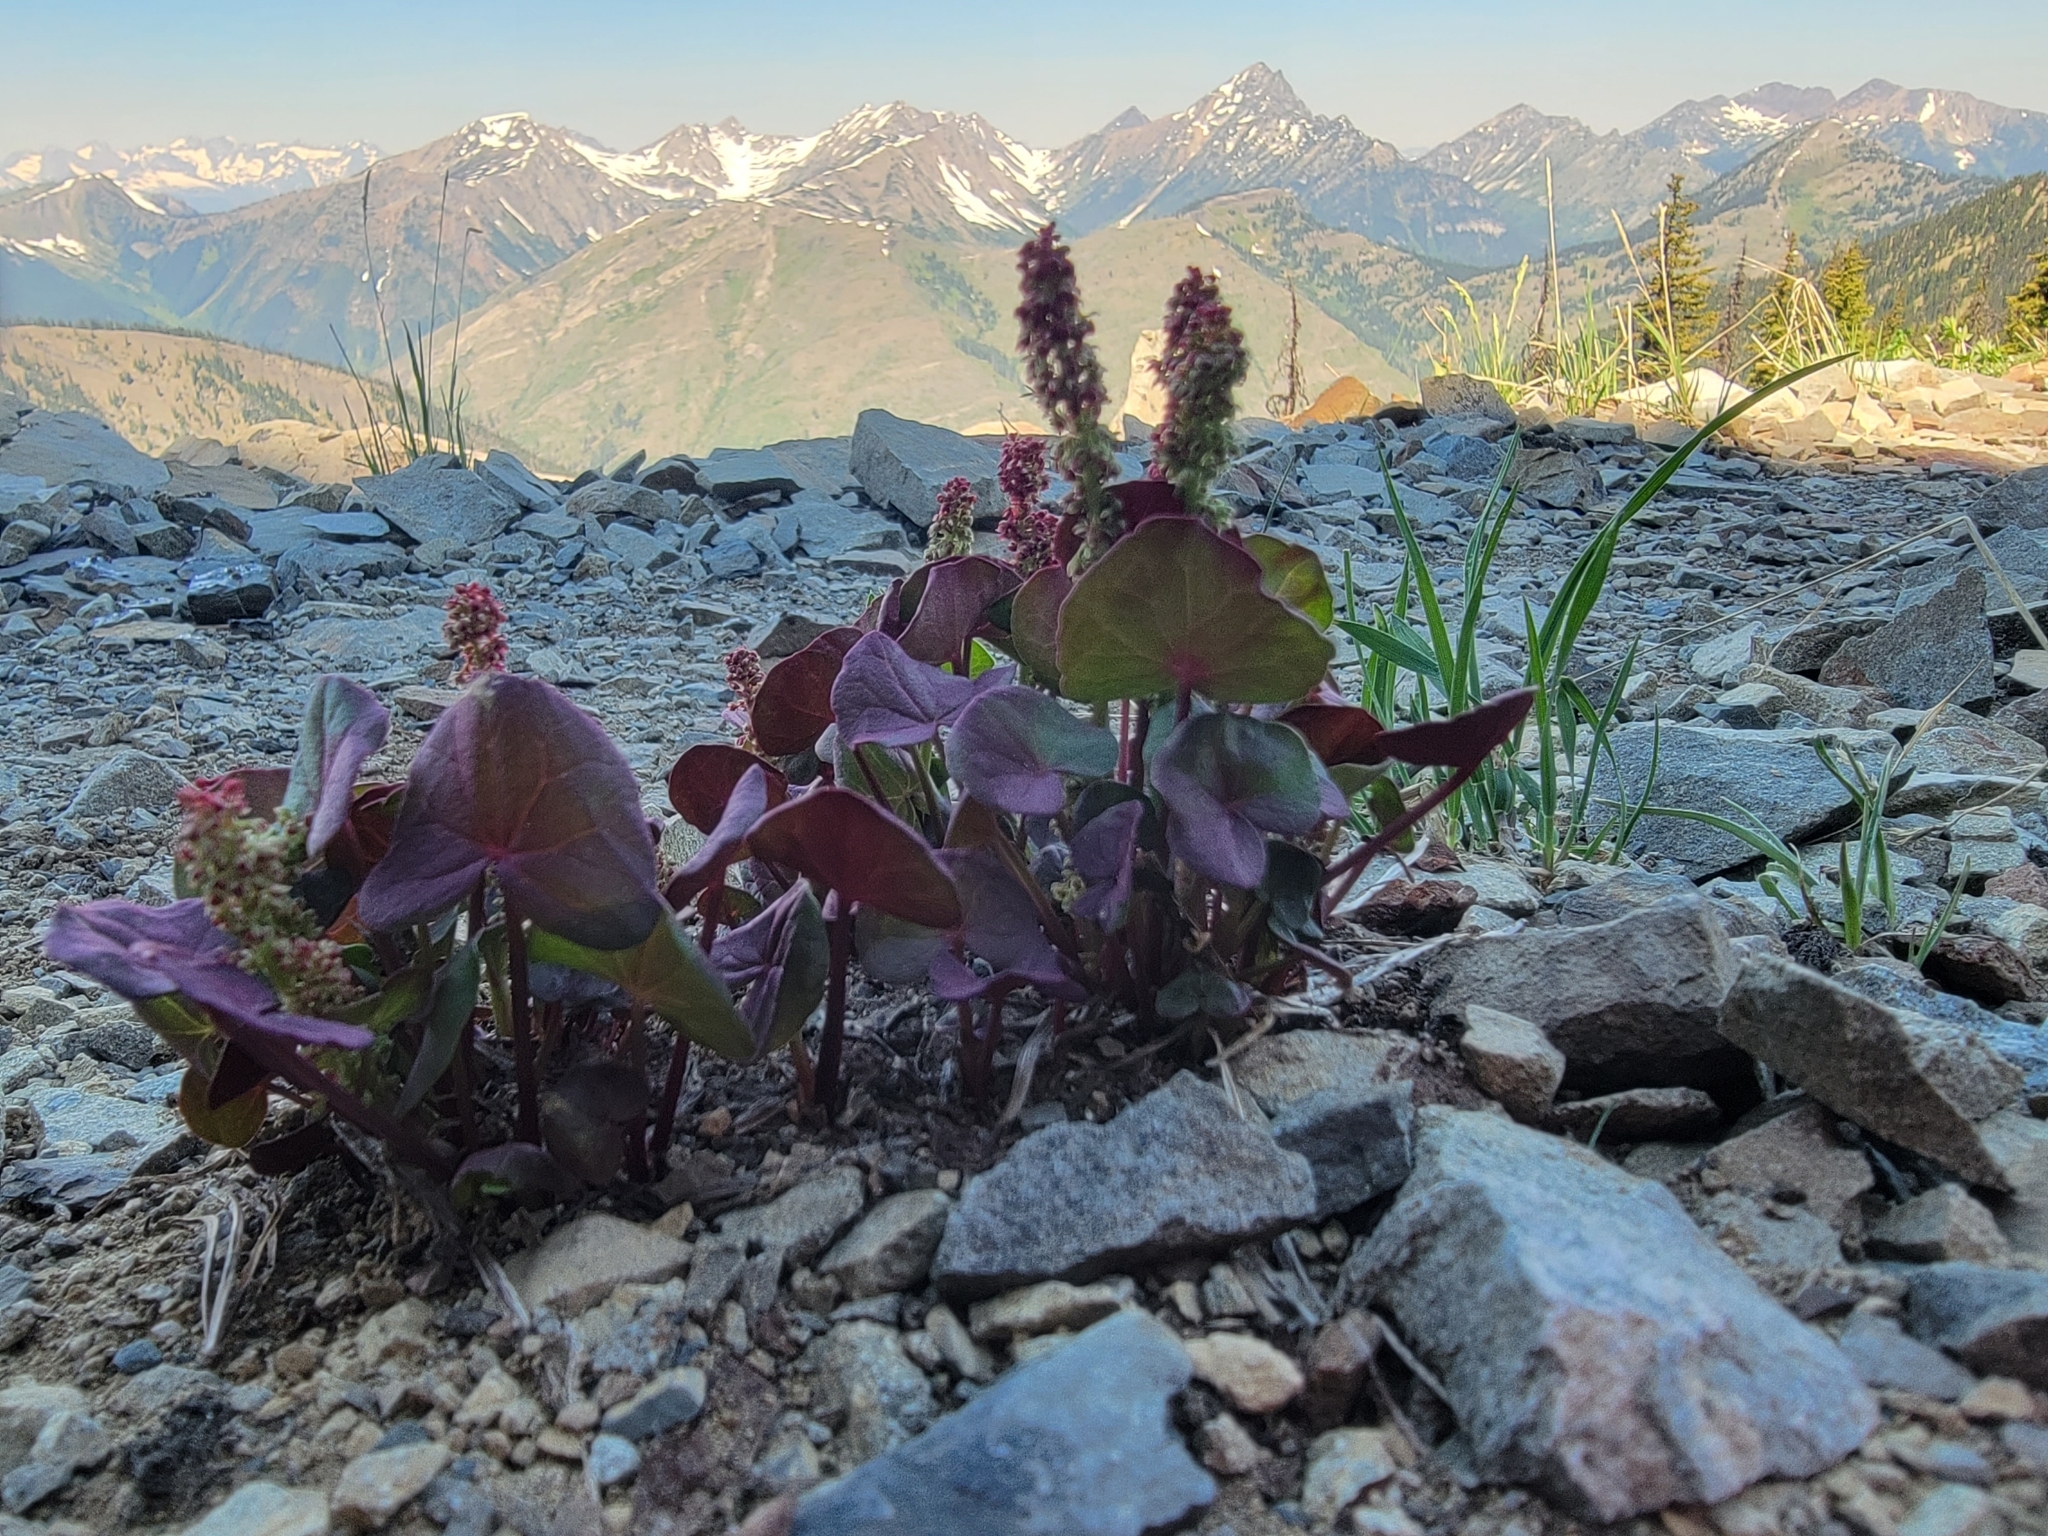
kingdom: Plantae
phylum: Tracheophyta
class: Magnoliopsida
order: Caryophyllales
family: Polygonaceae
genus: Oxyria
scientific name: Oxyria digyna
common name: Alpine mountain-sorrel
